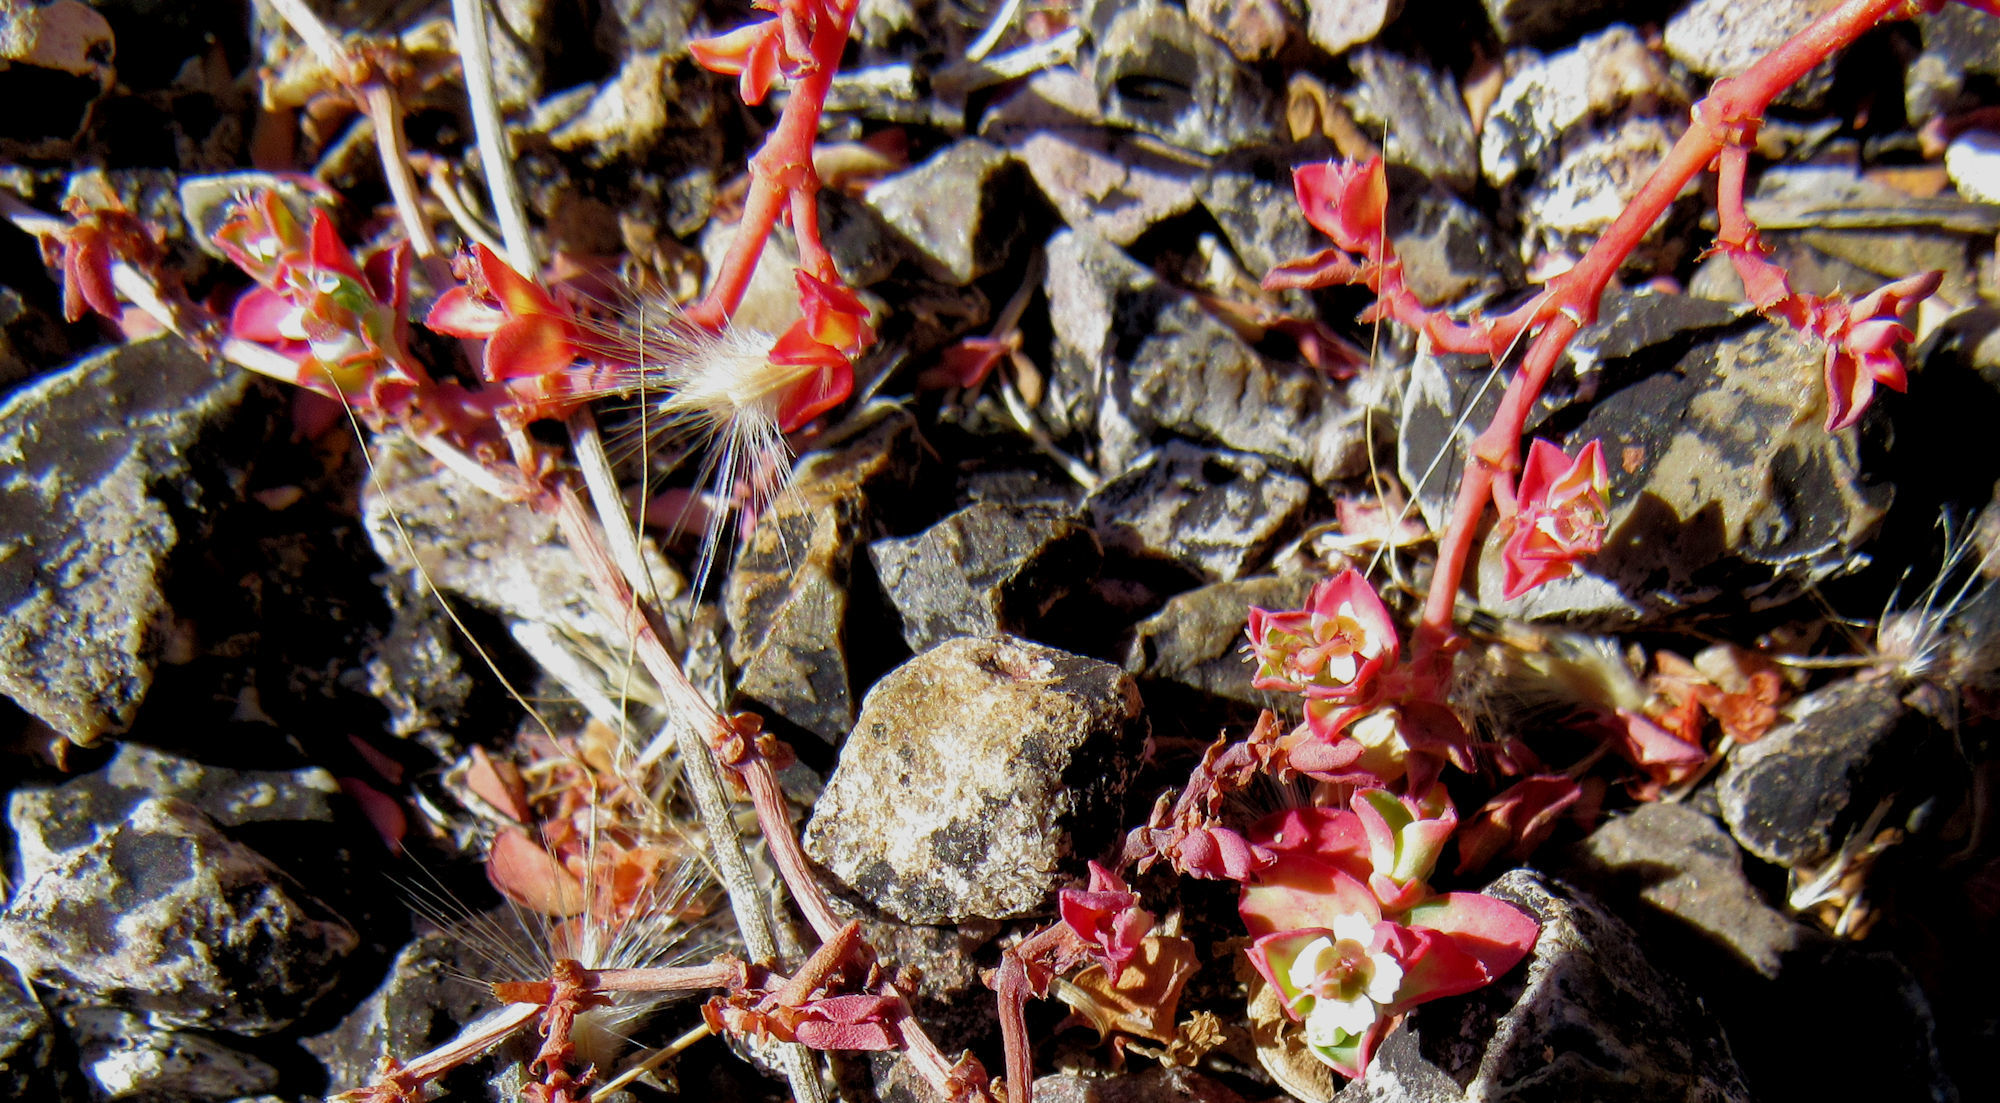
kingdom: Plantae
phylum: Tracheophyta
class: Magnoliopsida
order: Malpighiales
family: Euphorbiaceae
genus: Euphorbia
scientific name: Euphorbia albomarginata
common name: Whitemargin sandmat
